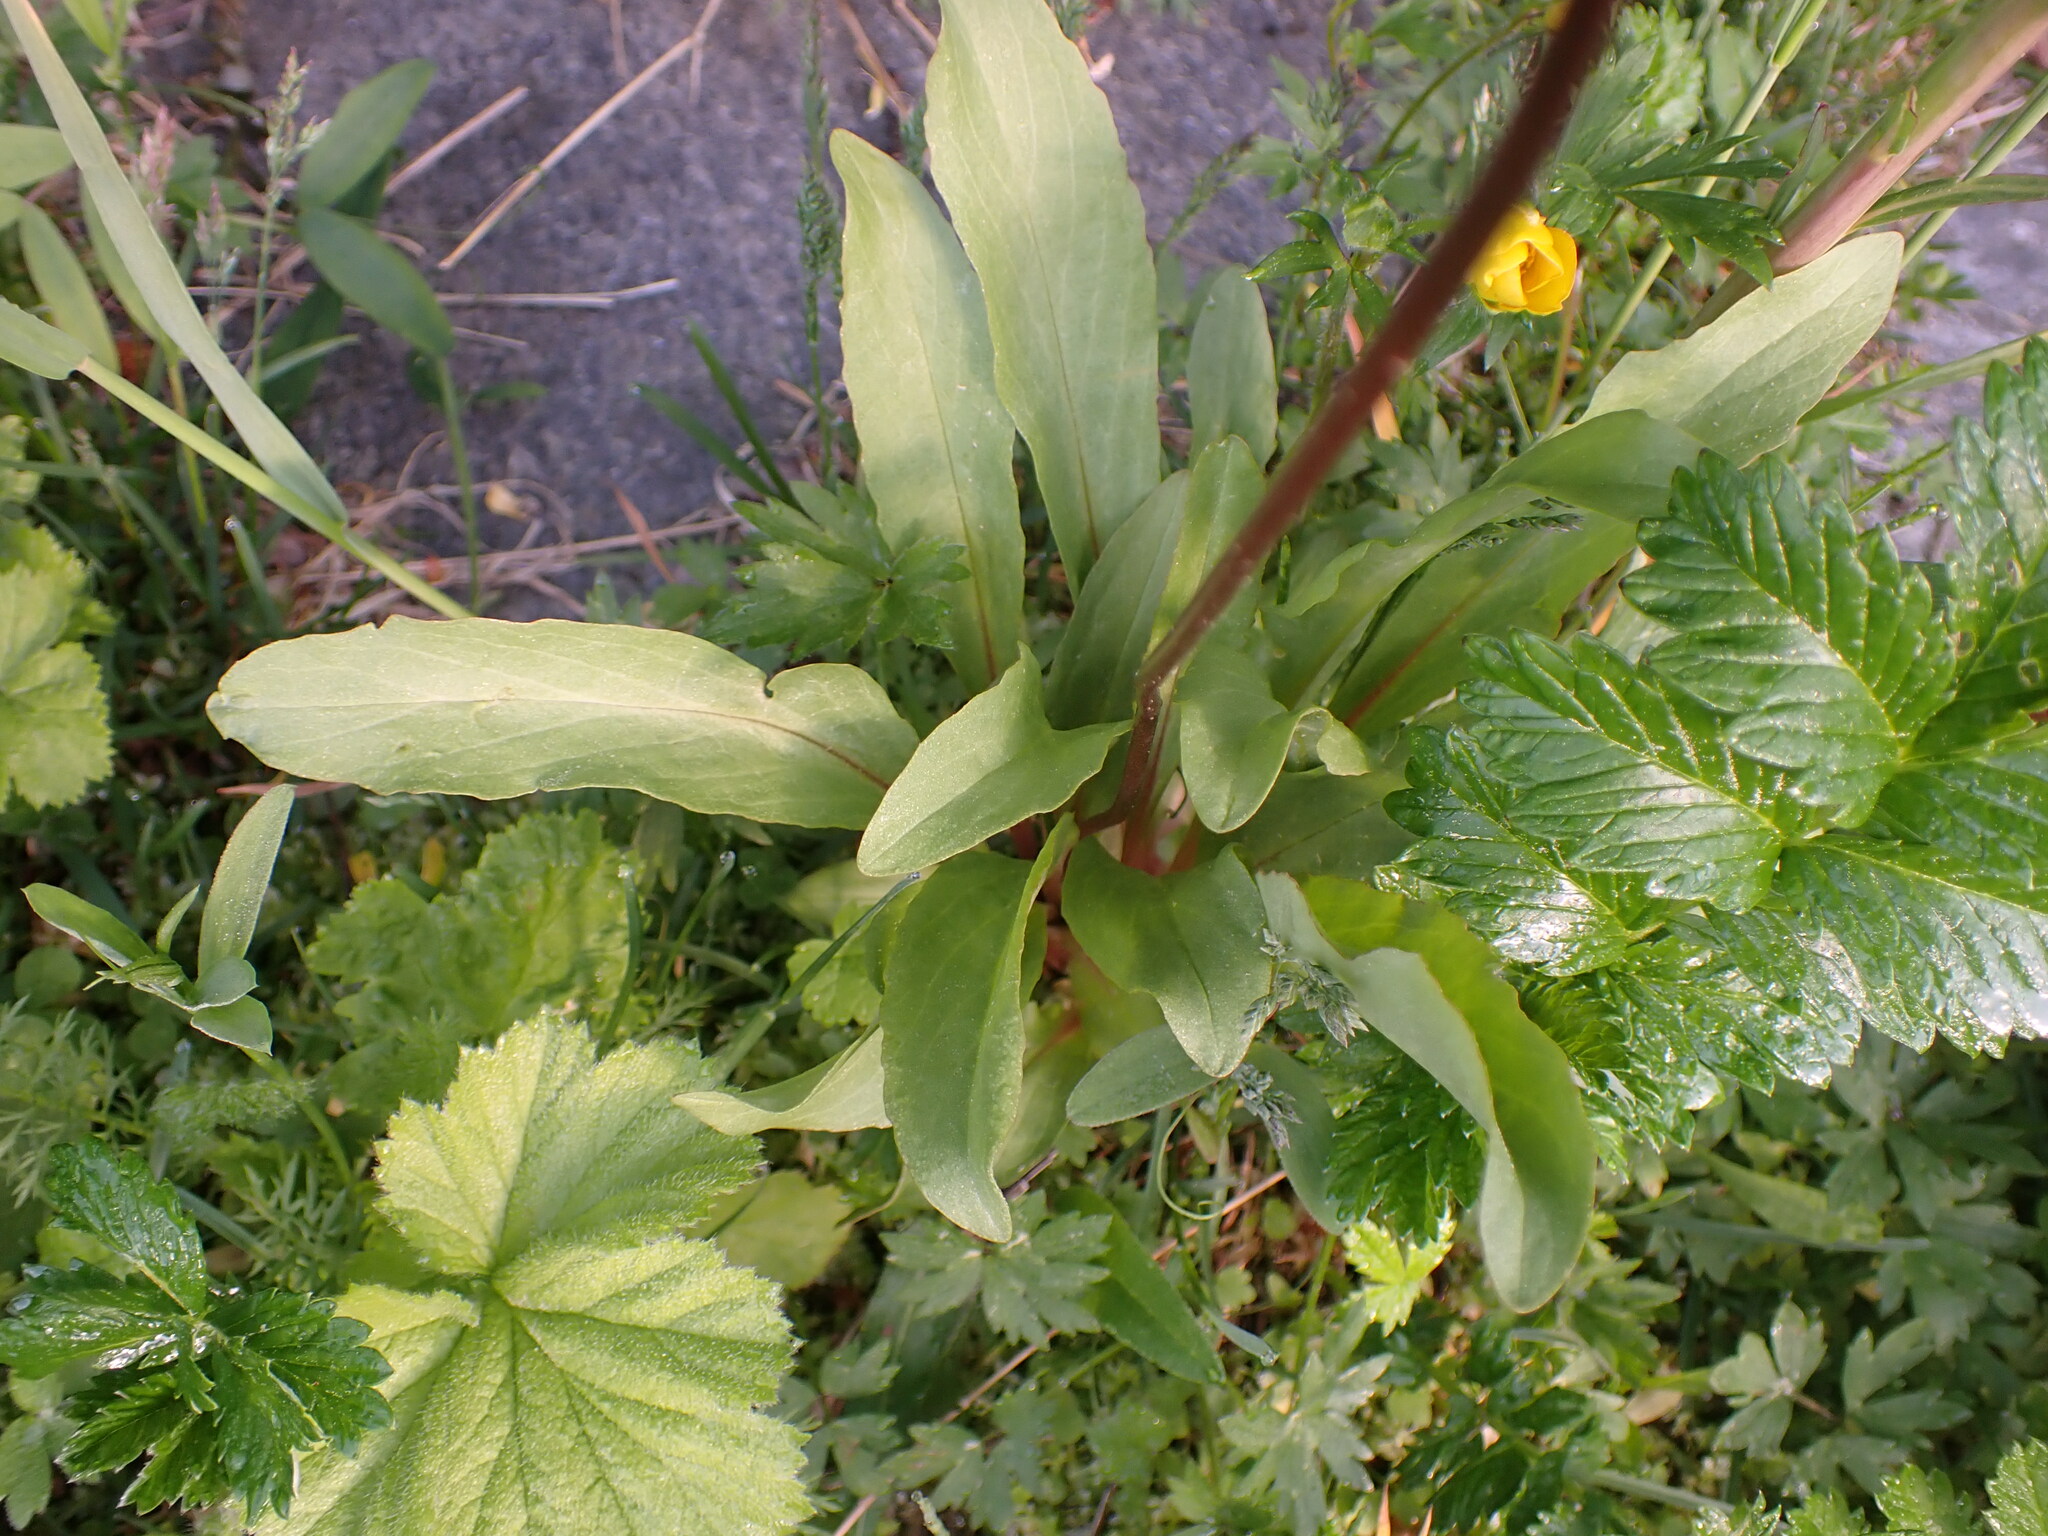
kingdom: Plantae
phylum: Tracheophyta
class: Magnoliopsida
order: Ericales
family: Primulaceae
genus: Dodecatheon
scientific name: Dodecatheon pulchellum
